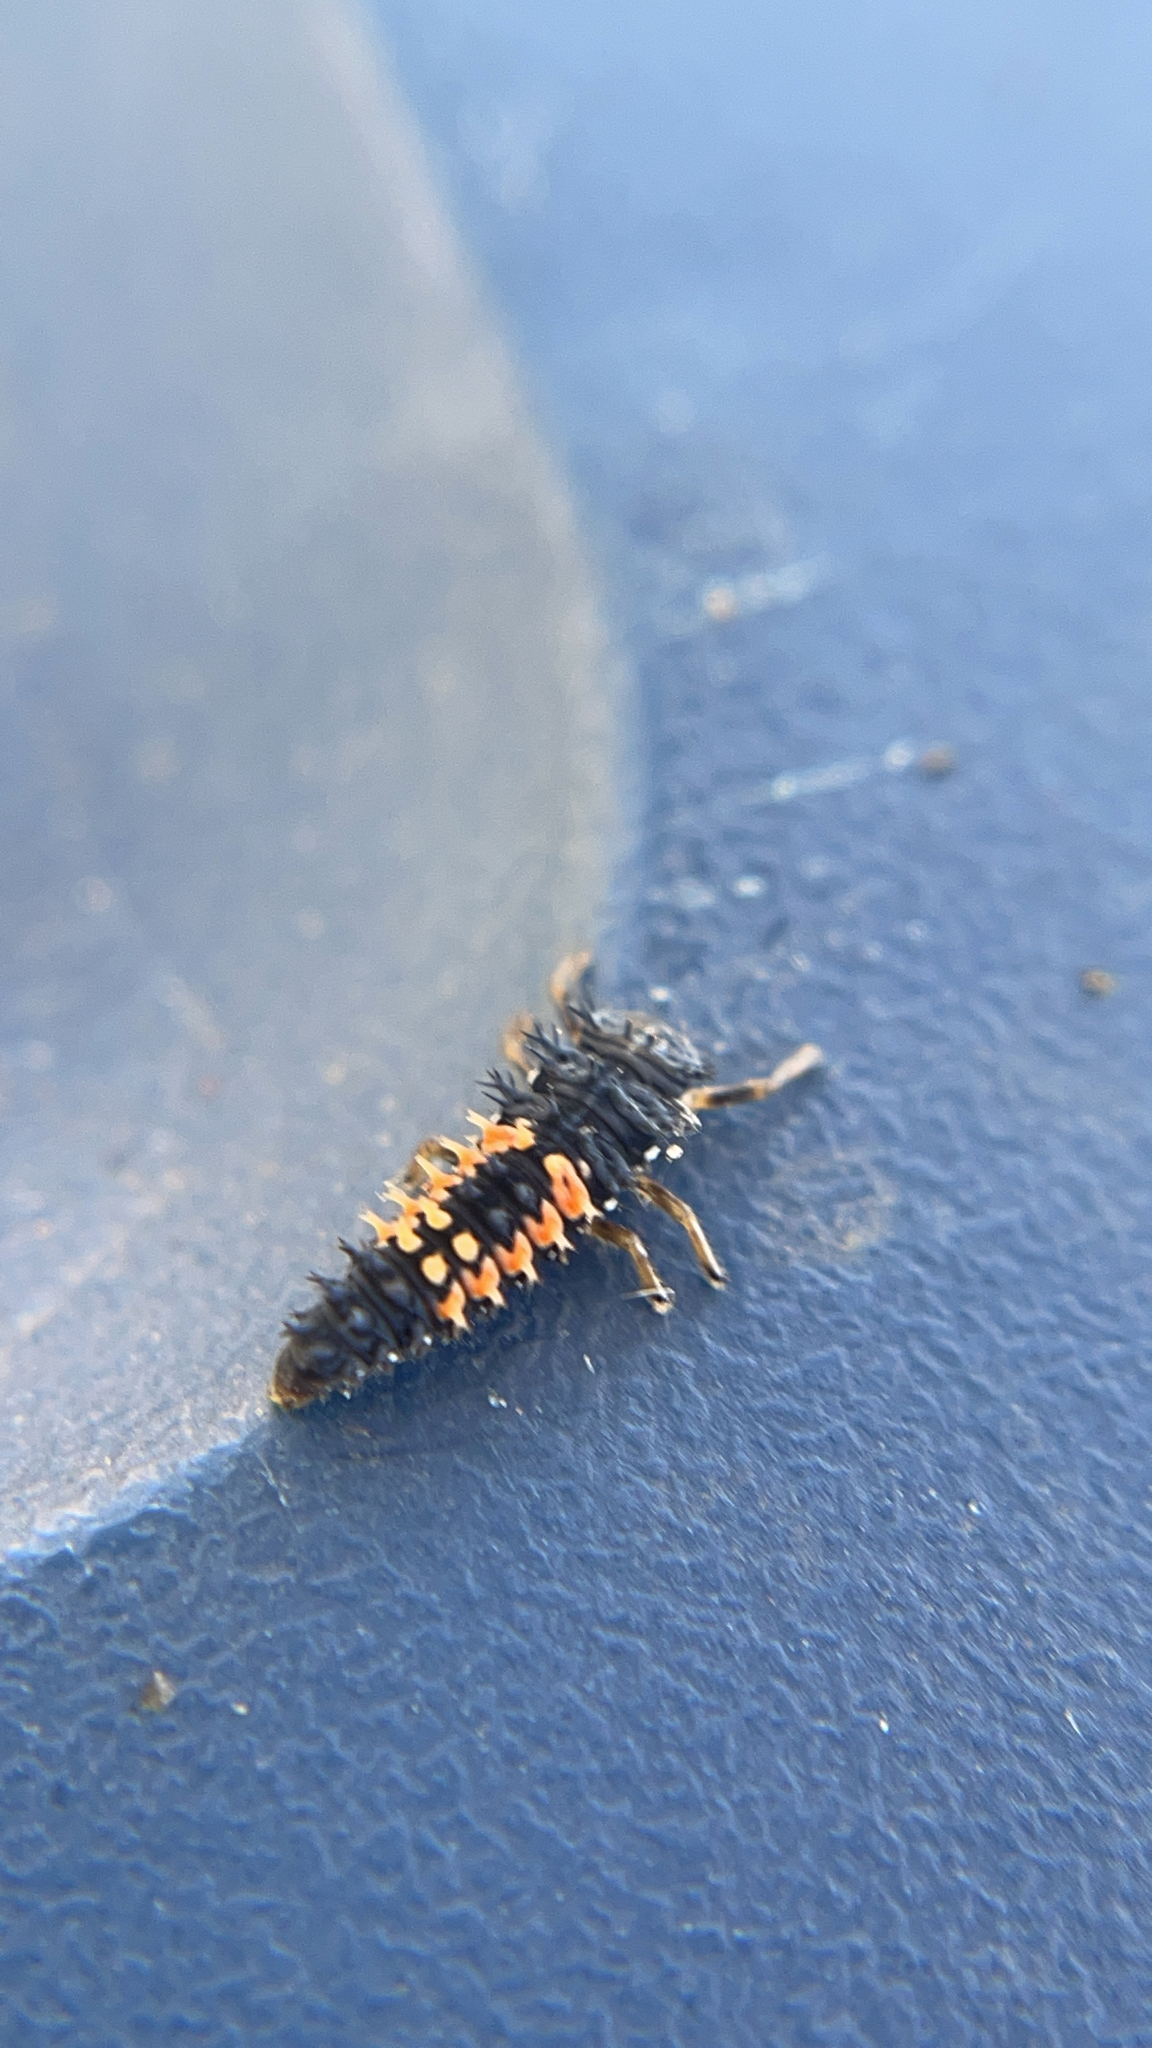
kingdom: Animalia
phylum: Arthropoda
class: Insecta
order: Coleoptera
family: Coccinellidae
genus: Harmonia
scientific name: Harmonia axyridis
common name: Harlequin ladybird
